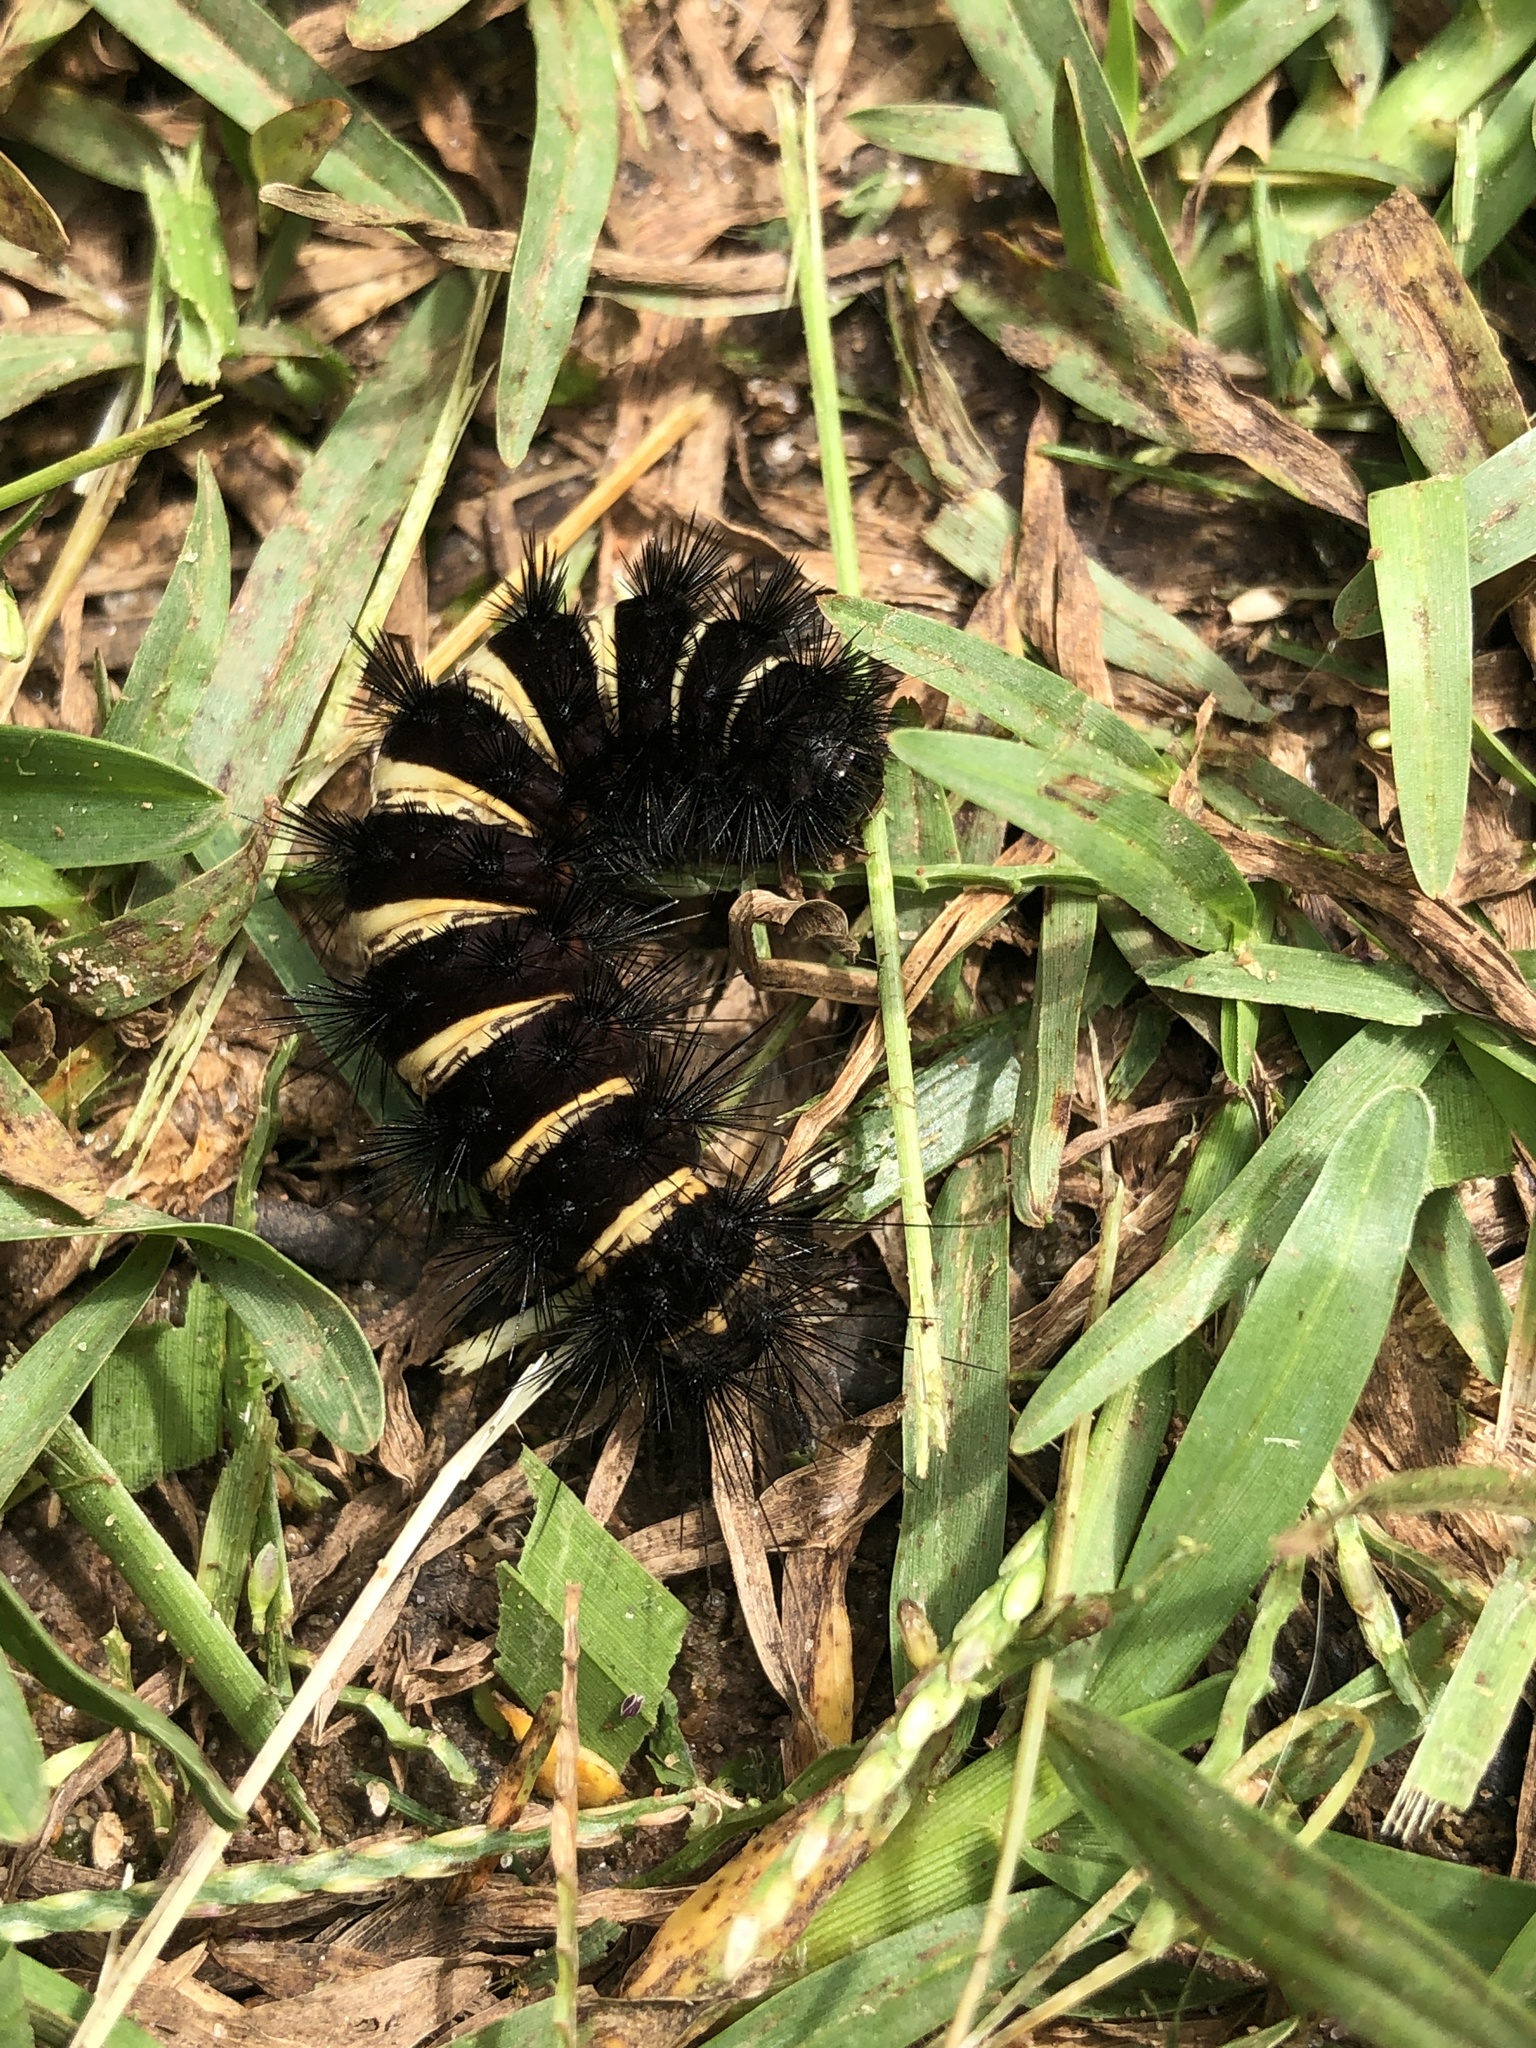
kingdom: Animalia
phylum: Arthropoda
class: Insecta
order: Lepidoptera
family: Erebidae
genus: Spilosoma
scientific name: Spilosoma congrua
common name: Agreeable tiger moth
